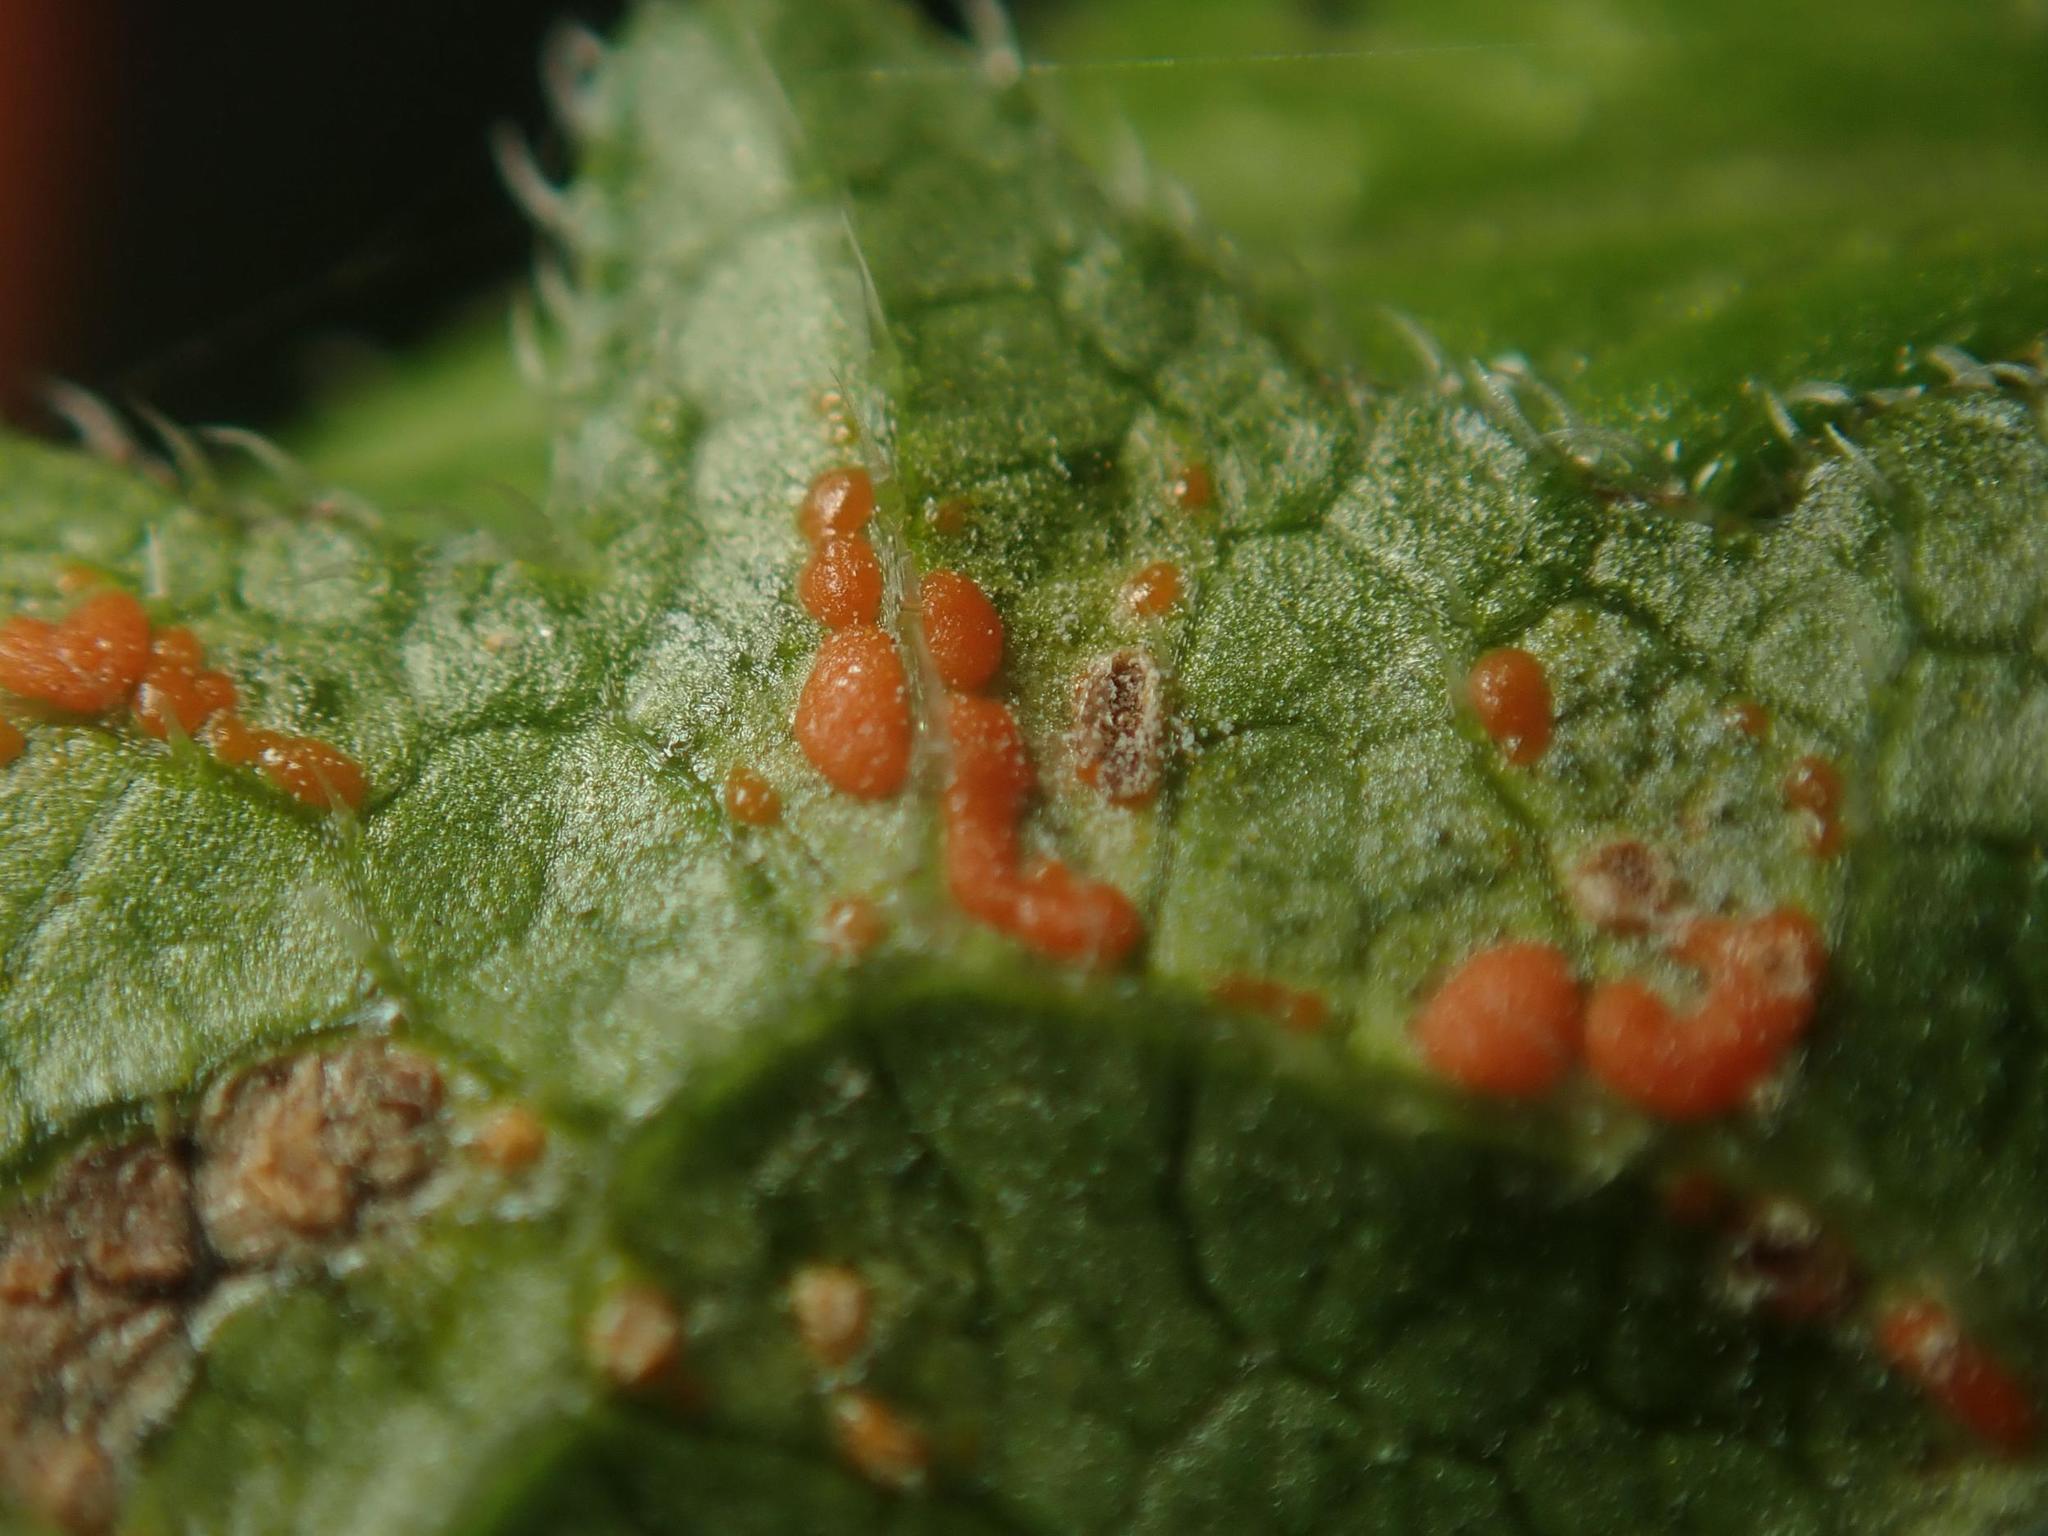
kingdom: Fungi
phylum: Basidiomycota
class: Pucciniomycetes
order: Pucciniales
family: Coleosporiaceae
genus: Coleosporium
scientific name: Coleosporium campanulae
